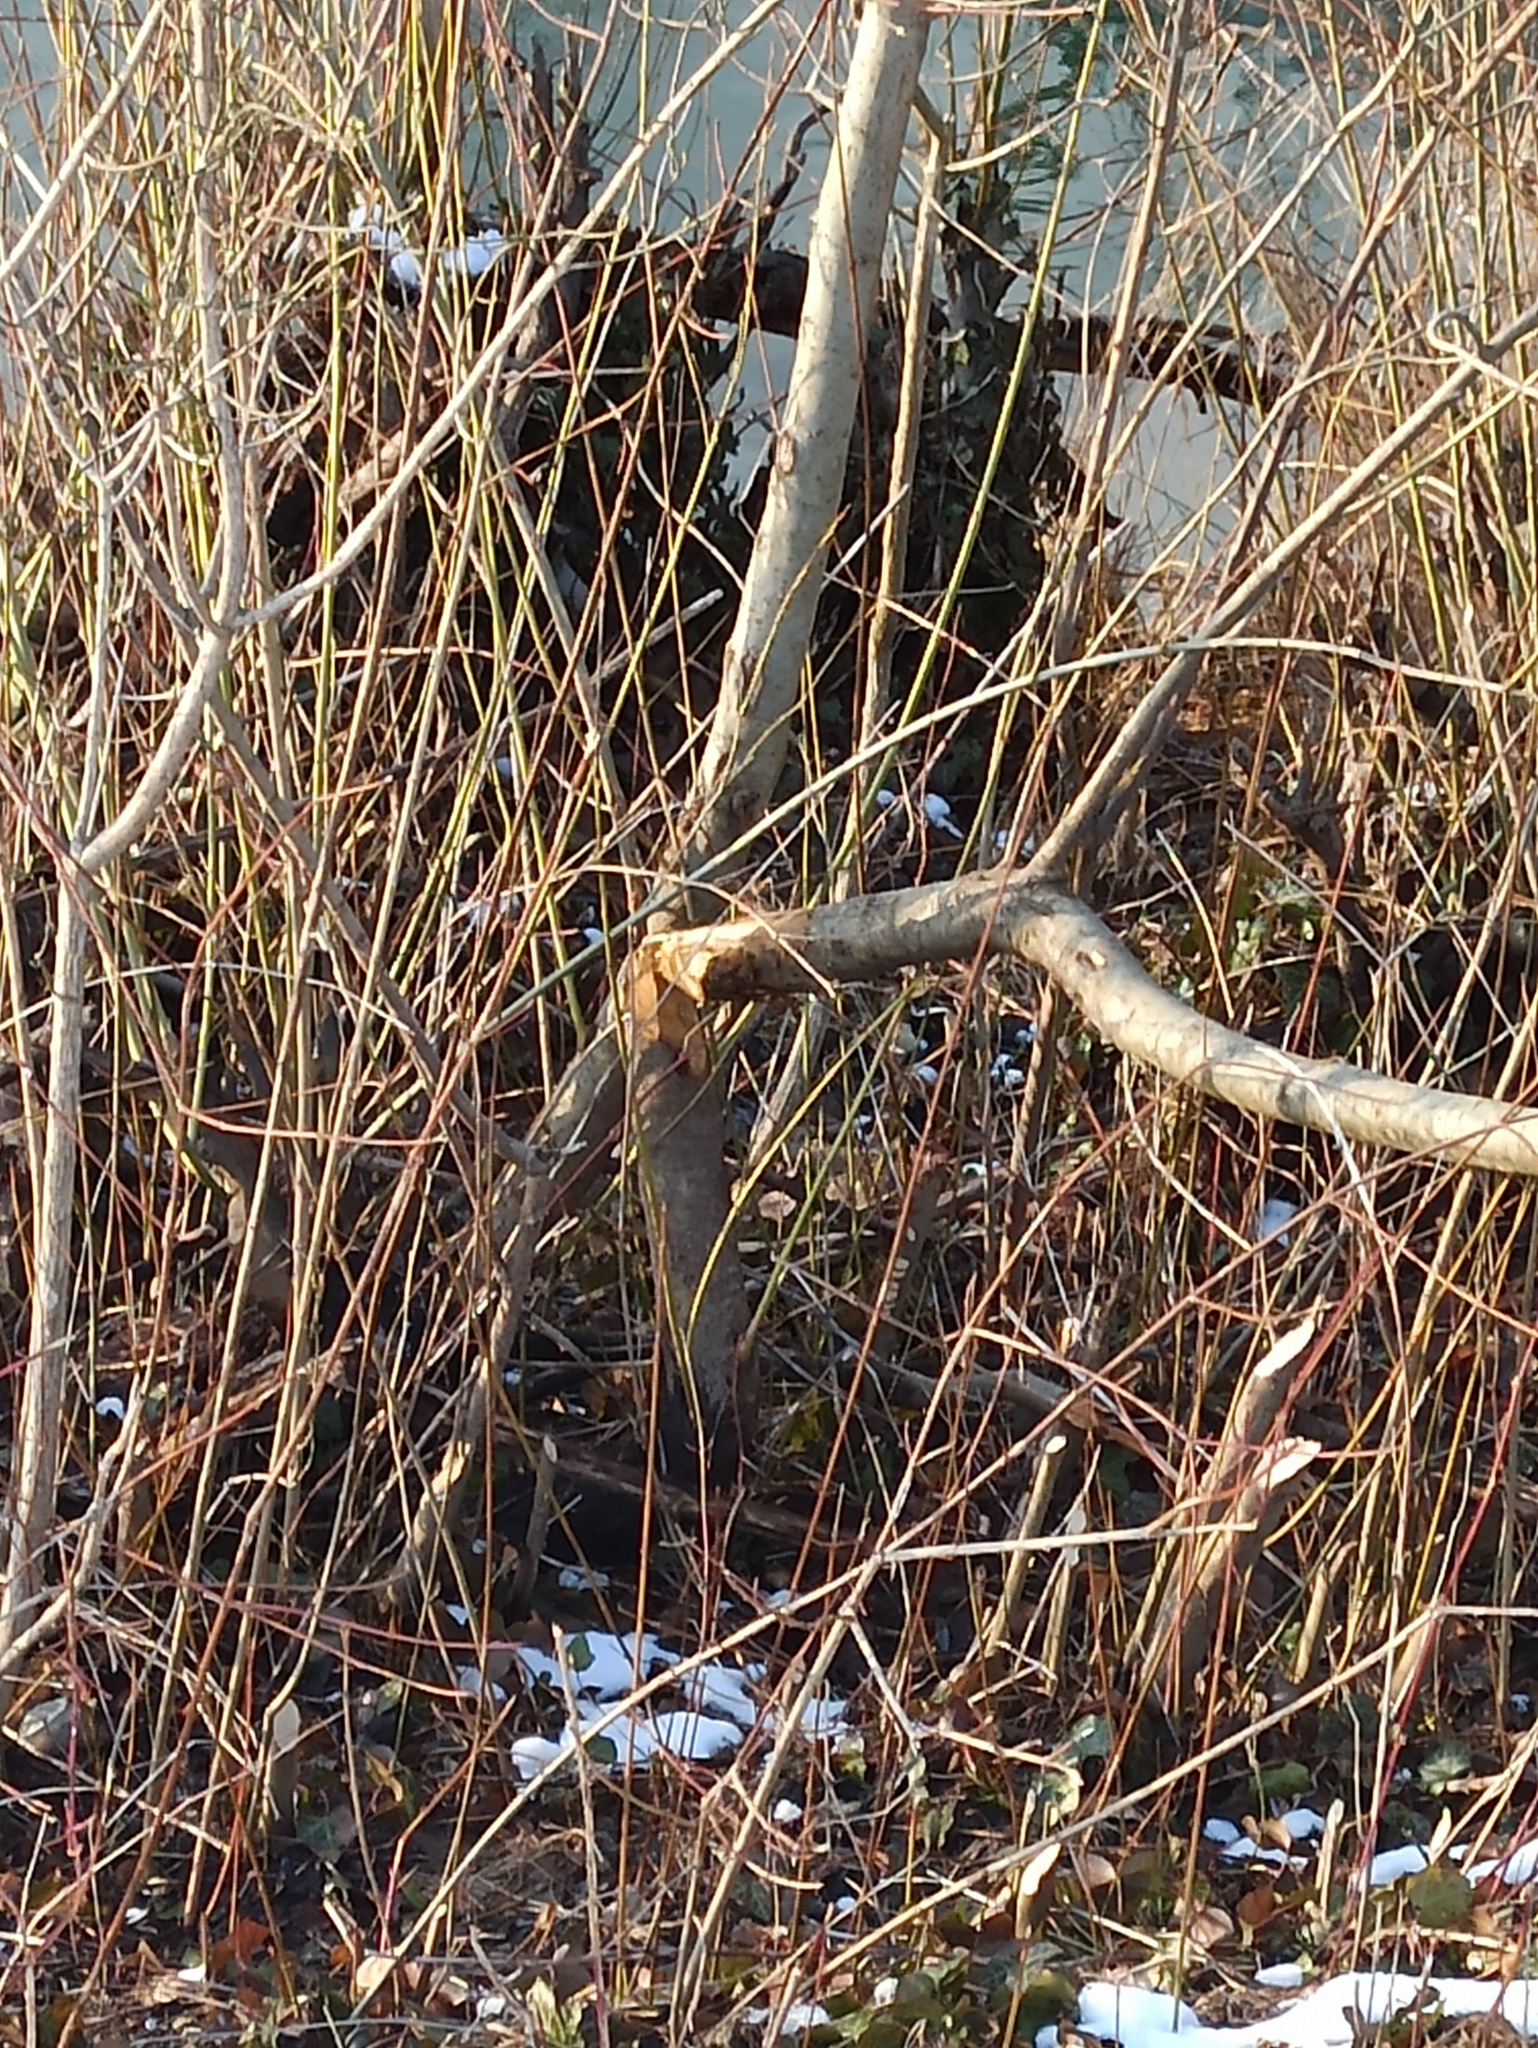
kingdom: Animalia
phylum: Chordata
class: Mammalia
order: Rodentia
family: Castoridae
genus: Castor
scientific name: Castor fiber
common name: Eurasian beaver
